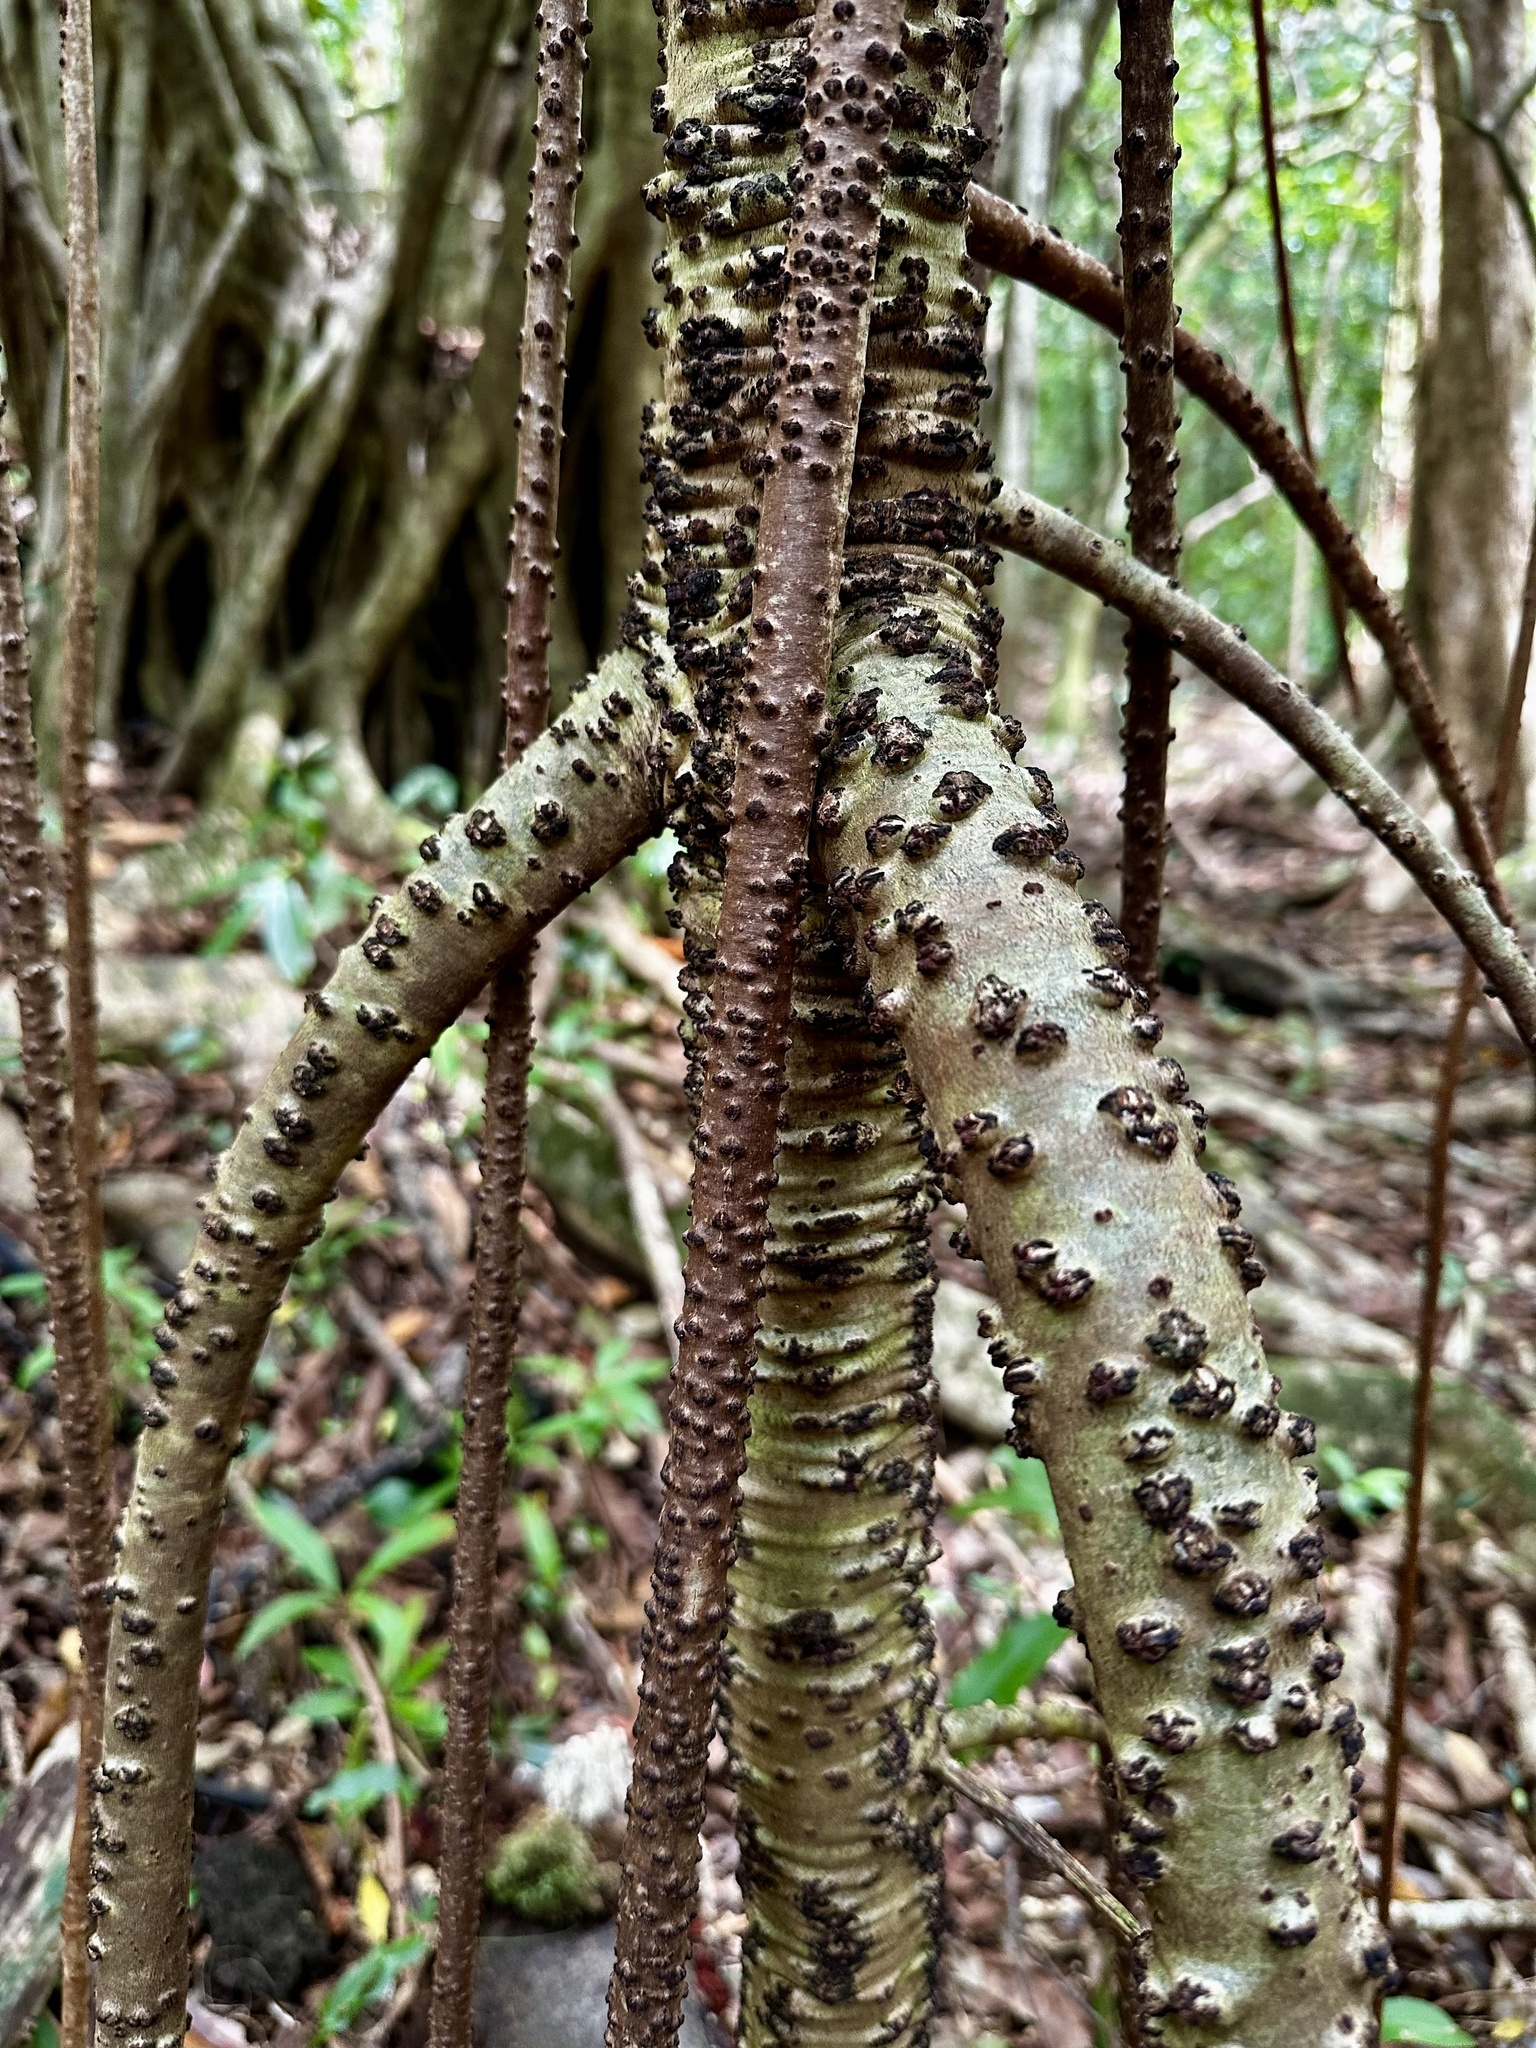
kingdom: Plantae
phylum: Tracheophyta
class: Magnoliopsida
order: Malpighiales
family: Clusiaceae
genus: Clusia
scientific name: Clusia rosea
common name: Scotch attorney
